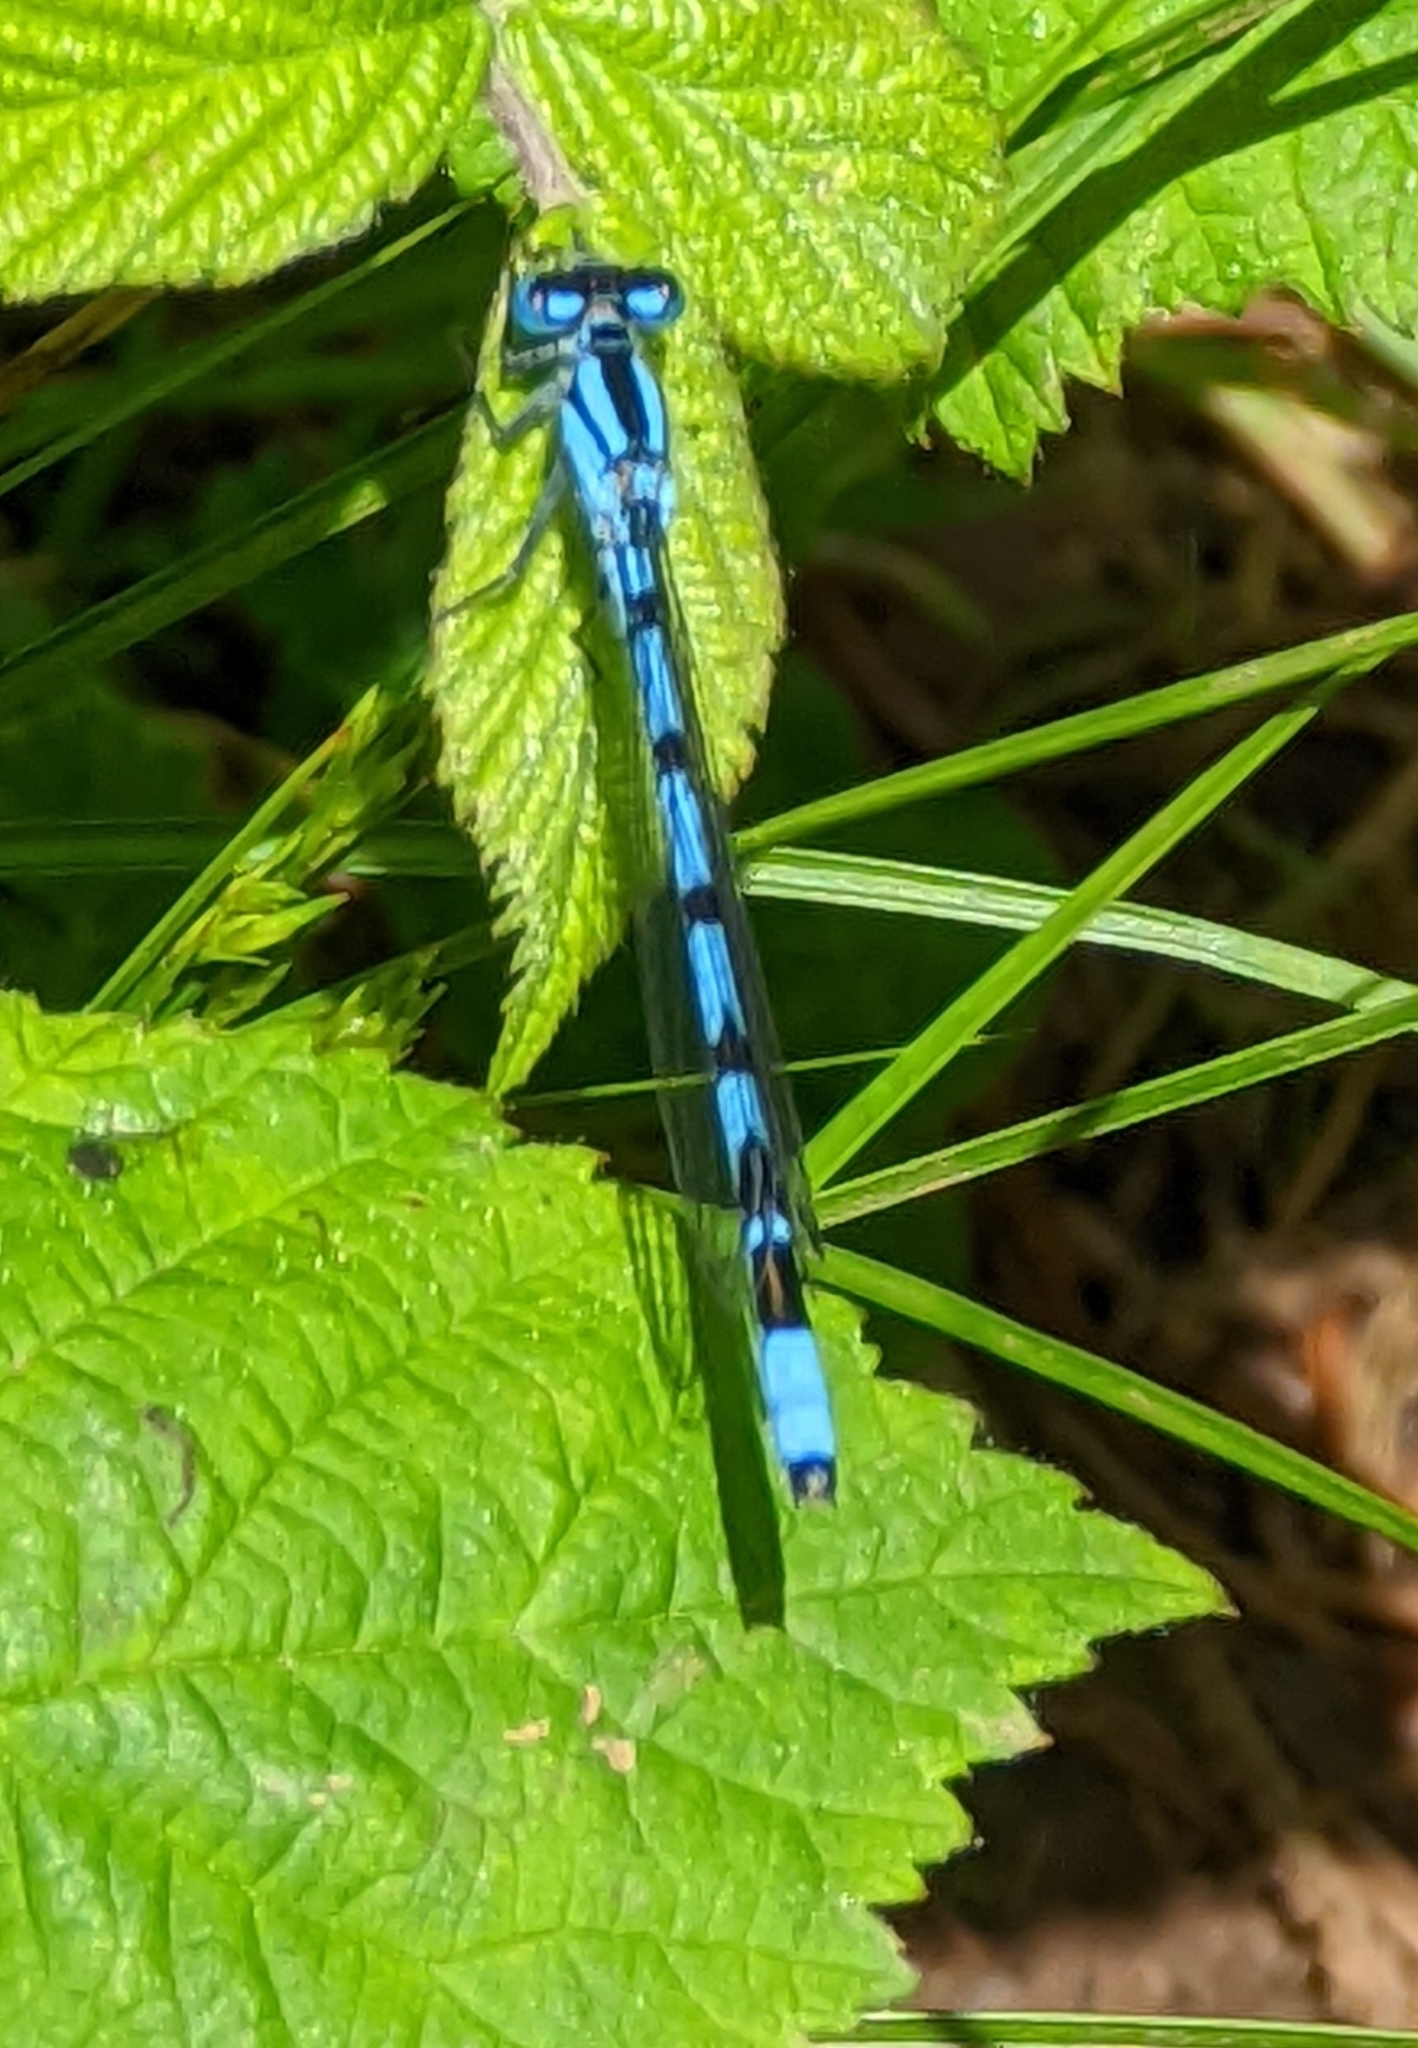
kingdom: Animalia
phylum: Arthropoda
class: Insecta
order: Odonata
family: Coenagrionidae
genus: Enallagma
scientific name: Enallagma cyathigerum
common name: Common blue damselfly
